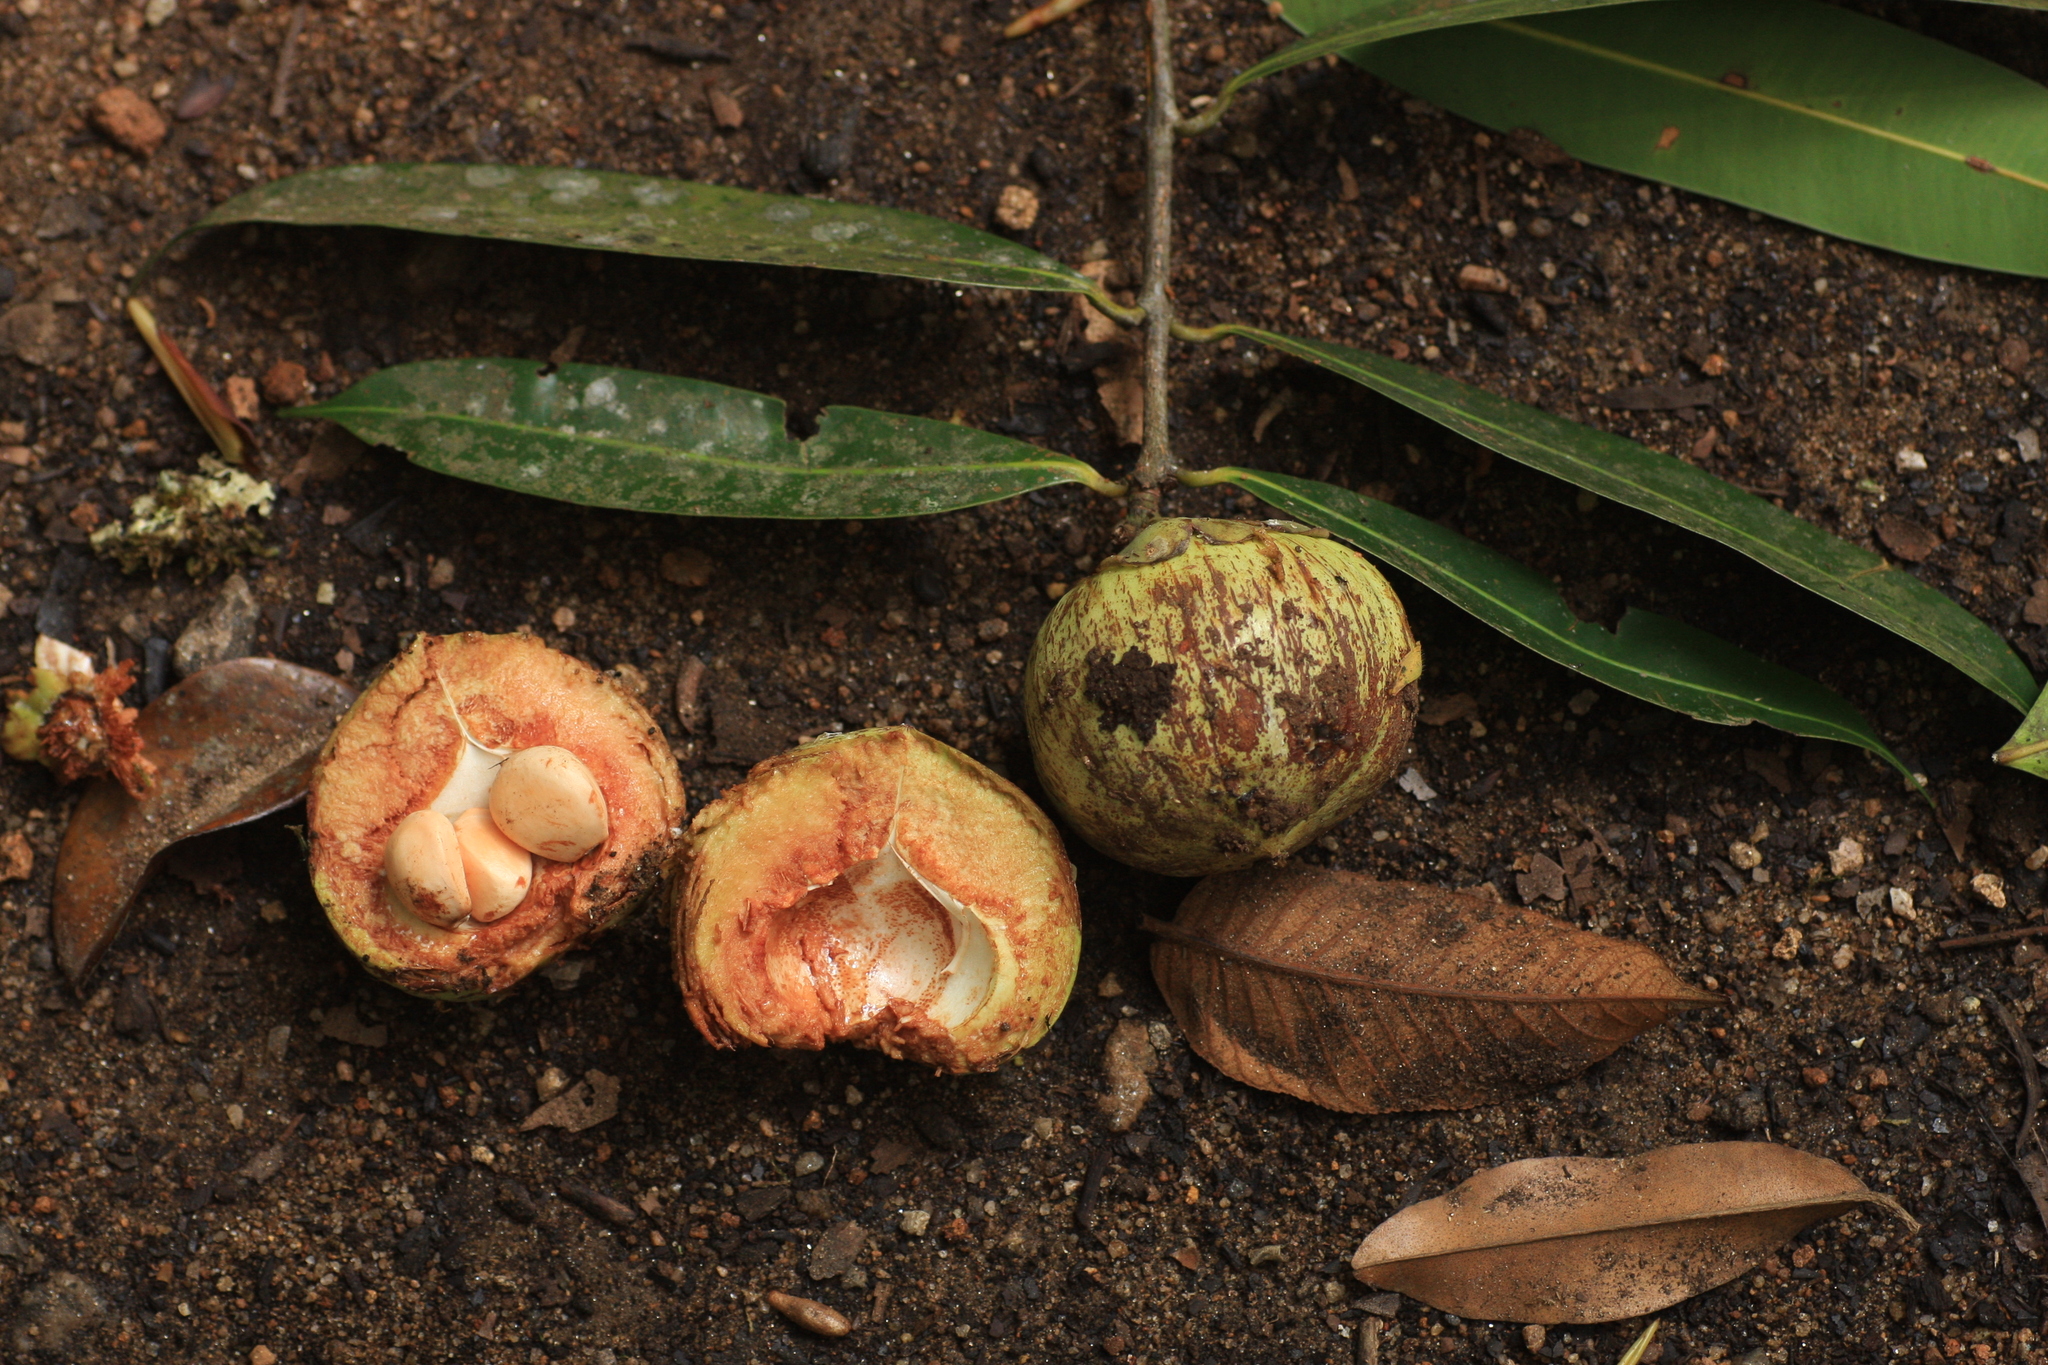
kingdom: Plantae
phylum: Tracheophyta
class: Magnoliopsida
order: Malpighiales
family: Calophyllaceae
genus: Mesua
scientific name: Mesua ferrea
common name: Mesua
